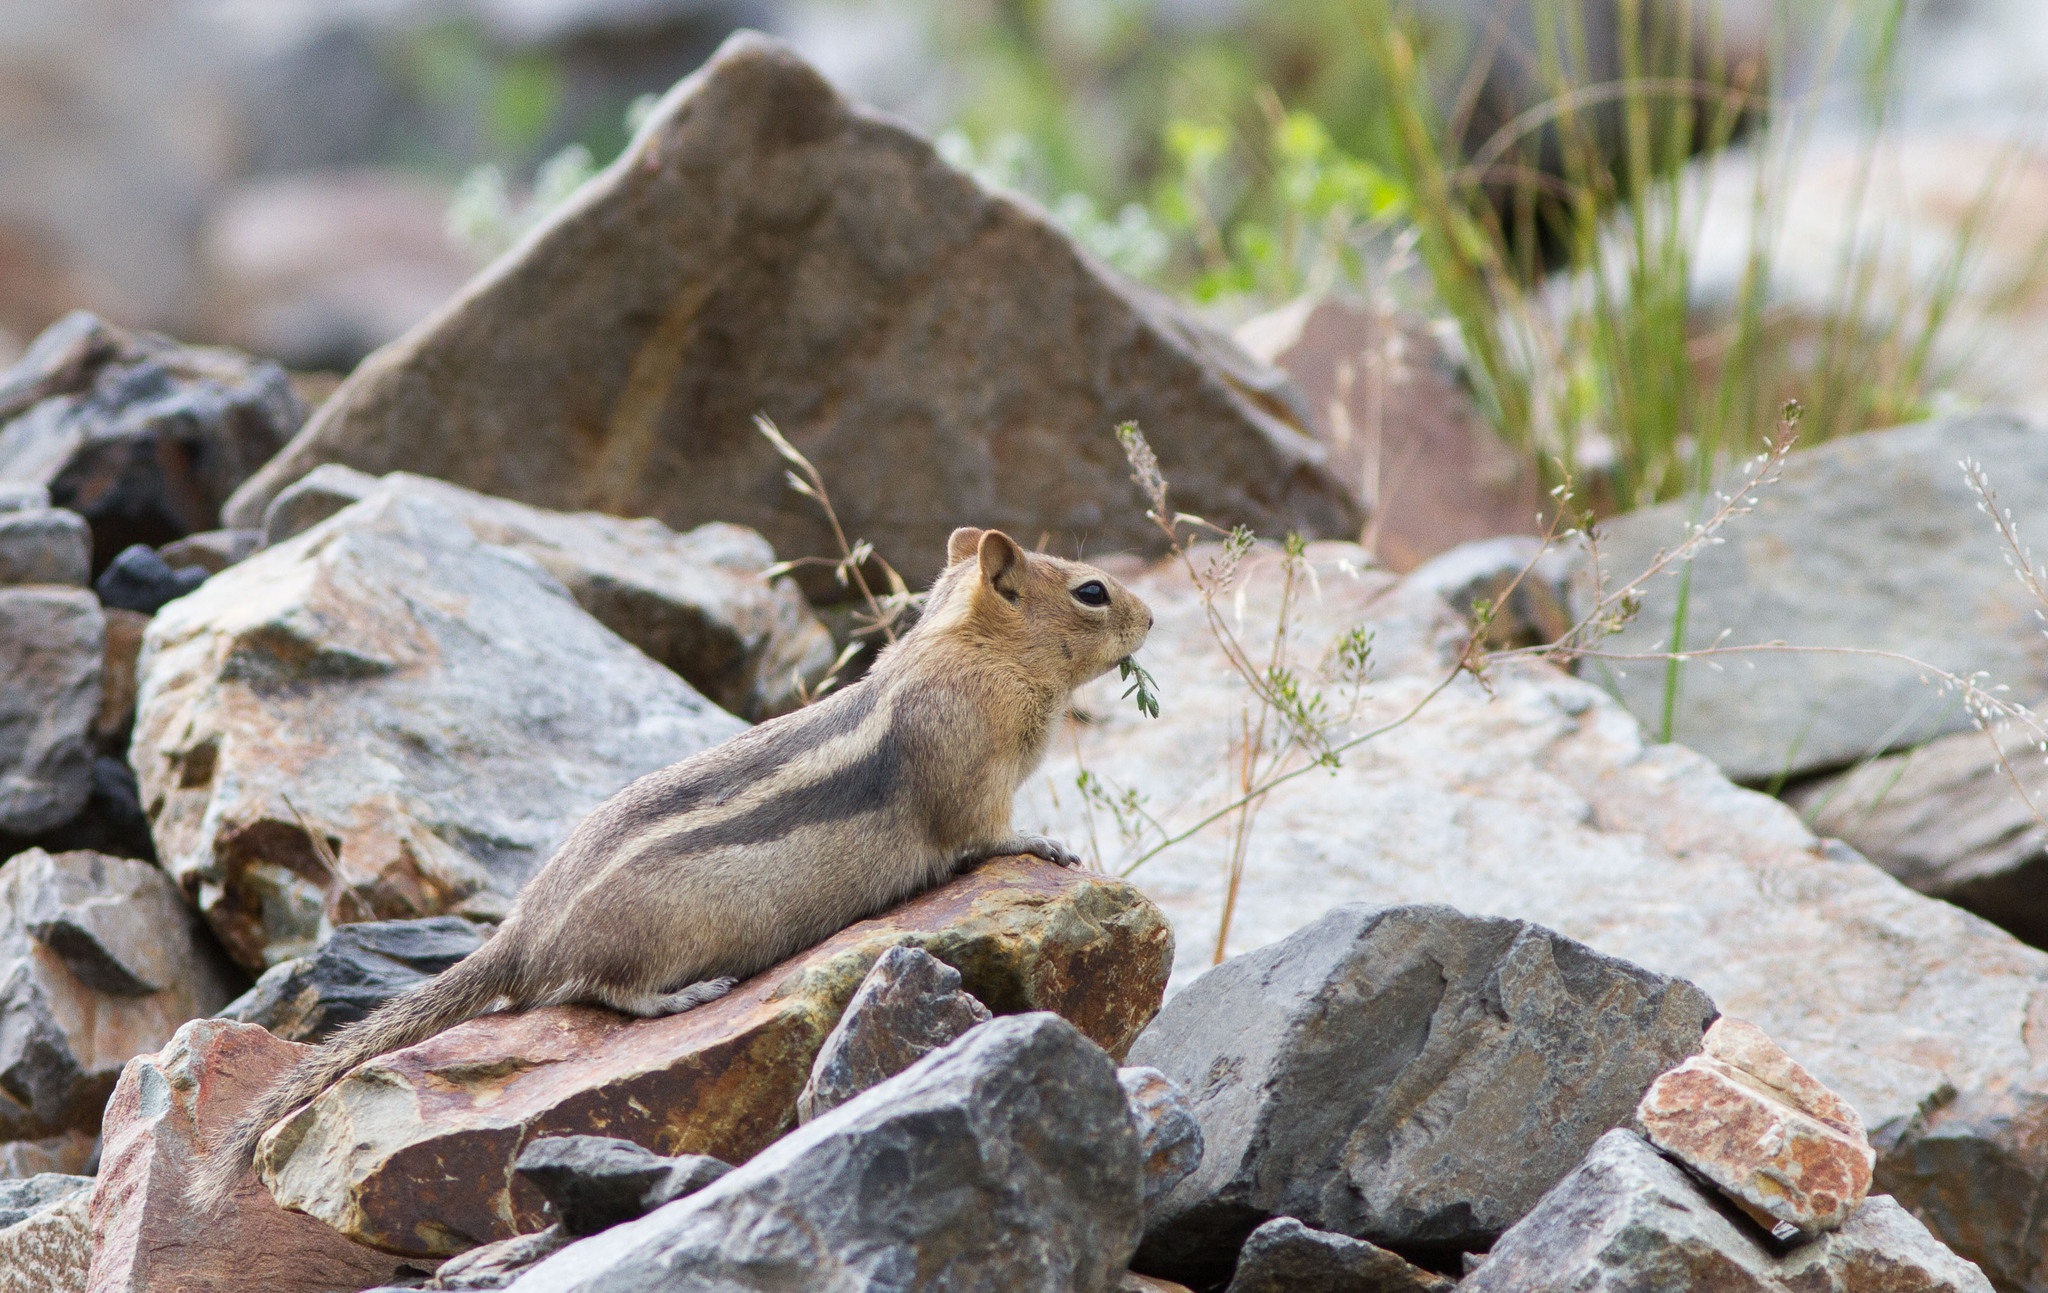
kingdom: Animalia
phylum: Chordata
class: Mammalia
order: Rodentia
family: Sciuridae
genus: Callospermophilus
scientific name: Callospermophilus lateralis
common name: Golden-mantled ground squirrel
